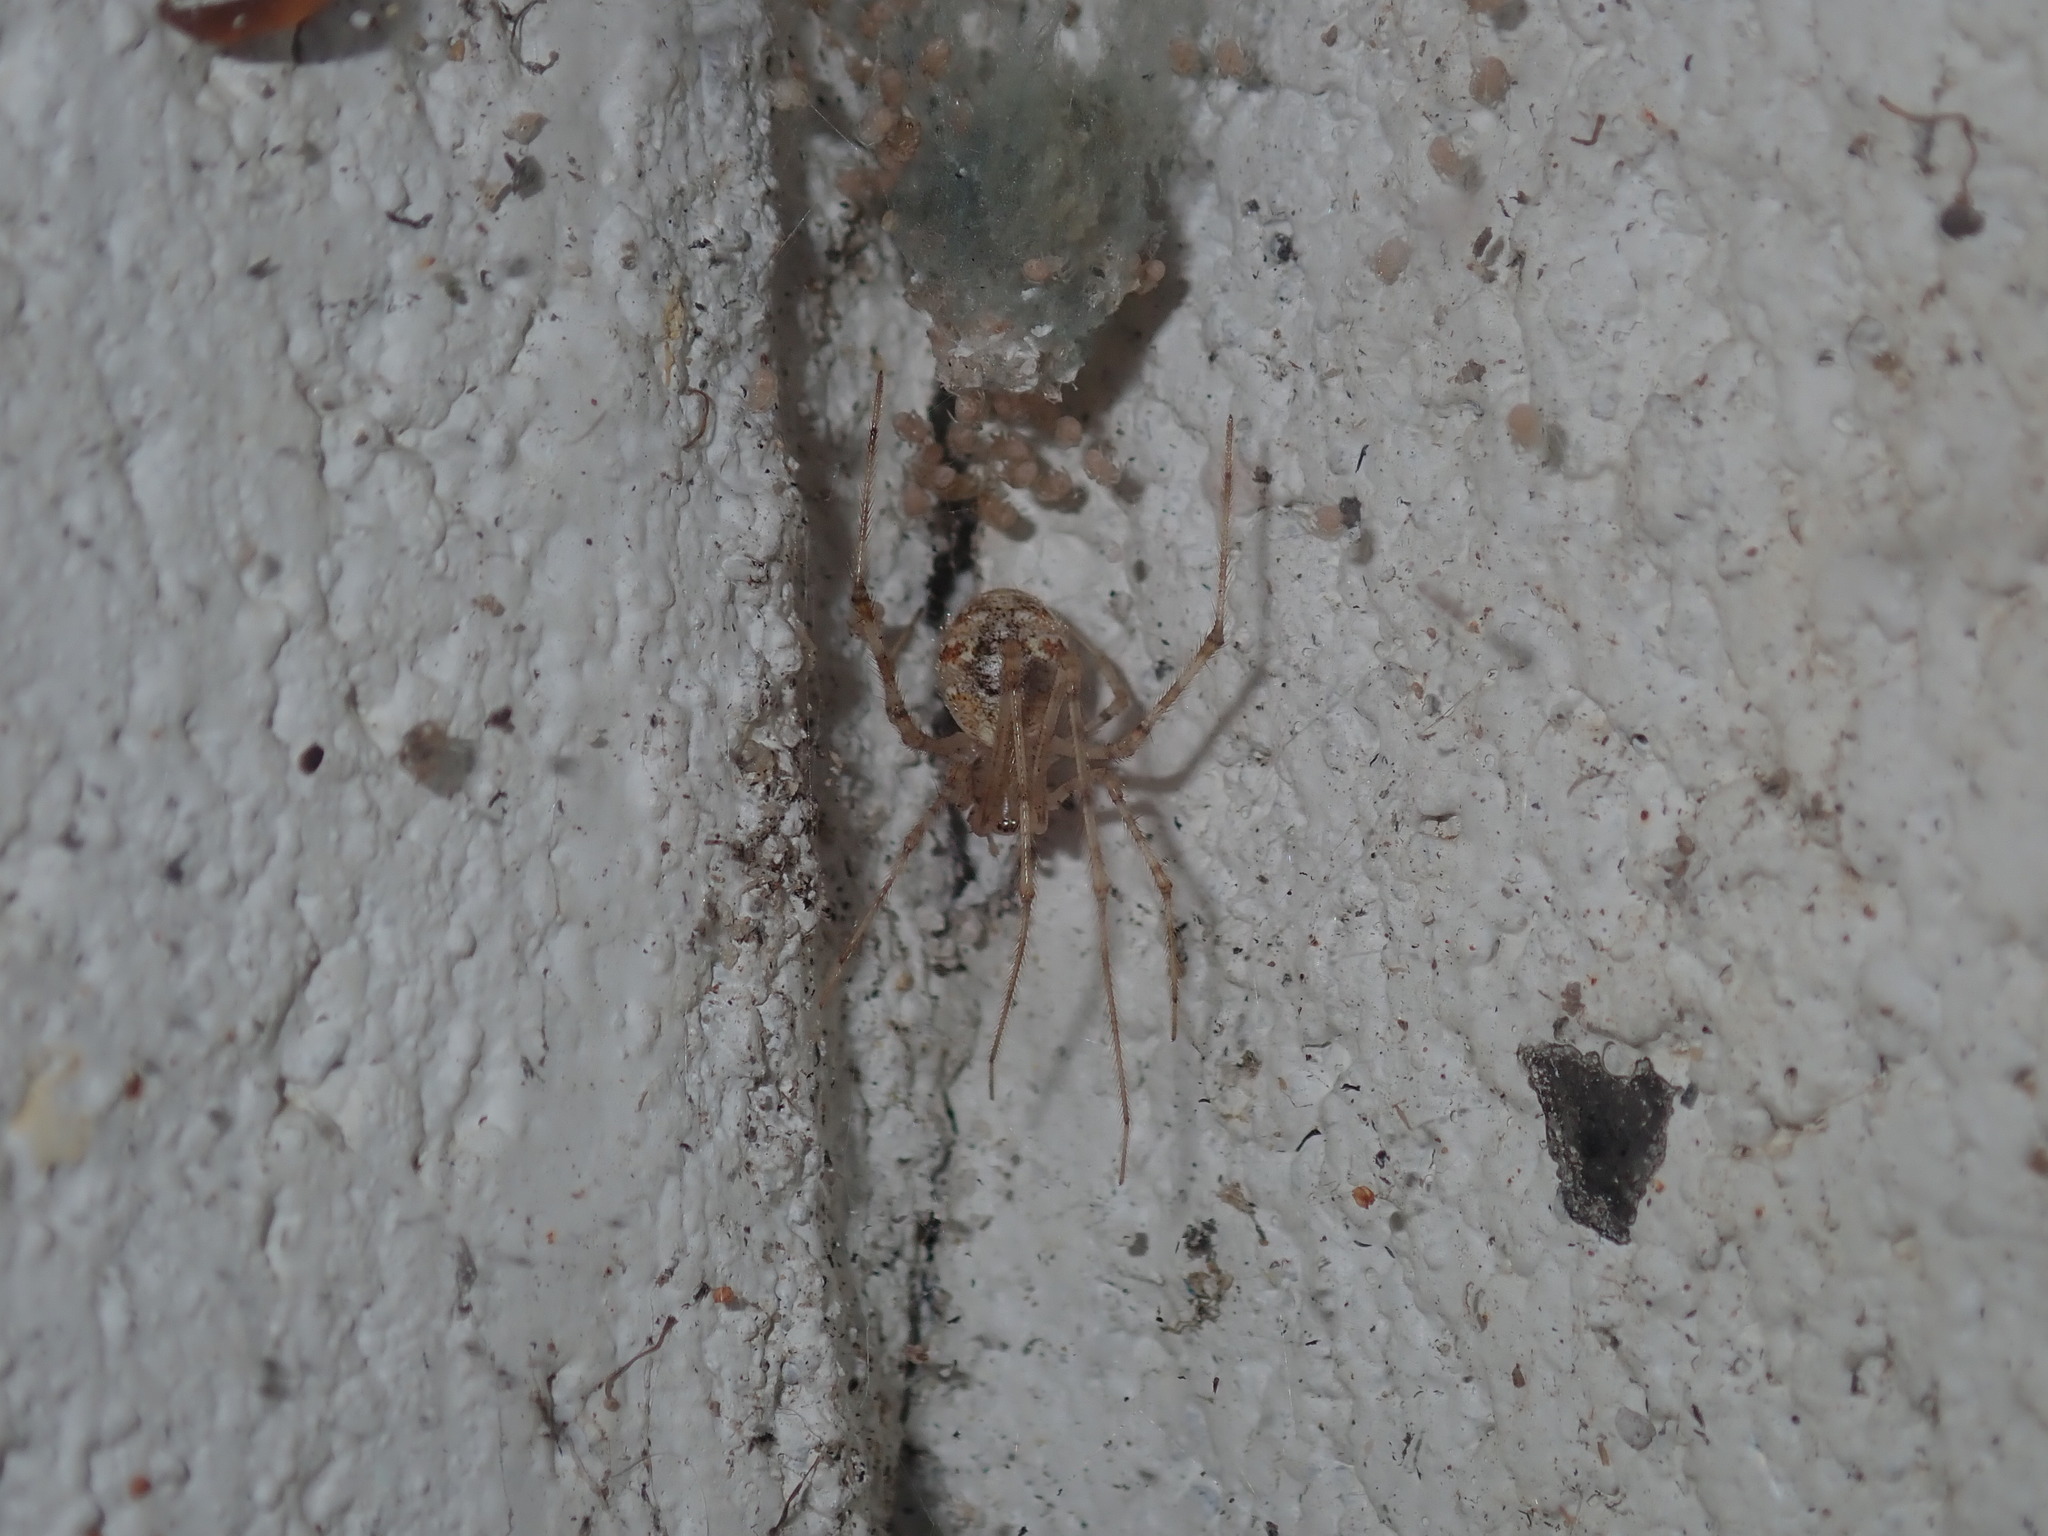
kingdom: Animalia
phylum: Arthropoda
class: Arachnida
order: Araneae
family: Theridiidae
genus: Cryptachaea
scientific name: Cryptachaea gigantipes
